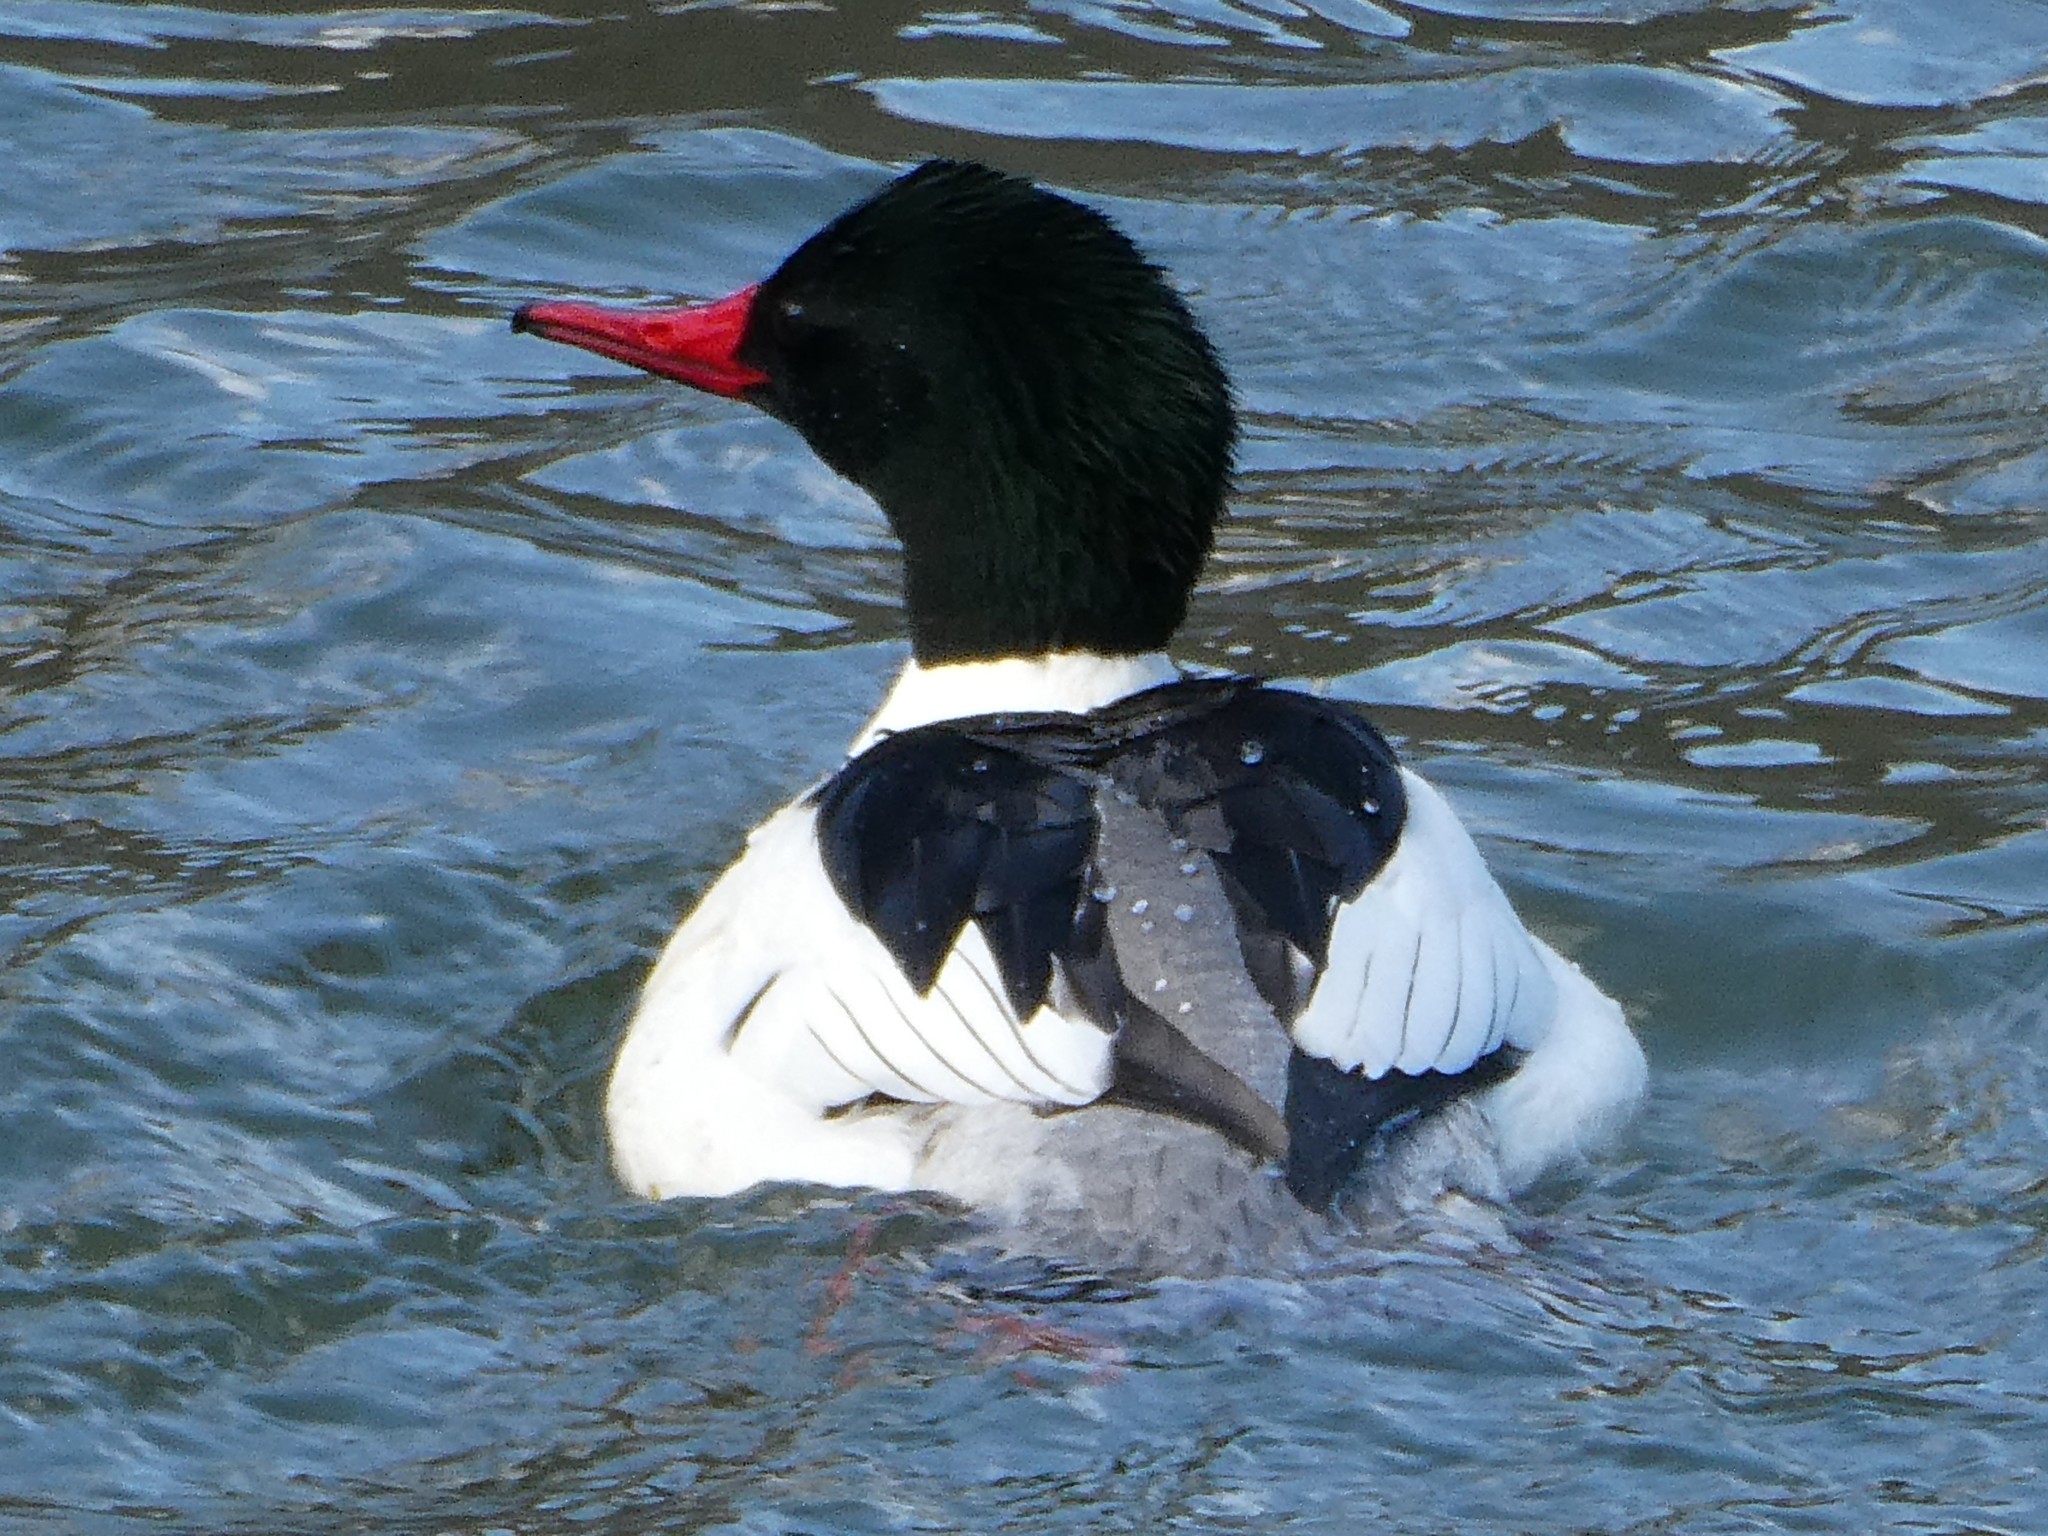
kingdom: Animalia
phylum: Chordata
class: Aves
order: Anseriformes
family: Anatidae
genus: Mergus
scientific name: Mergus merganser
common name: Common merganser
